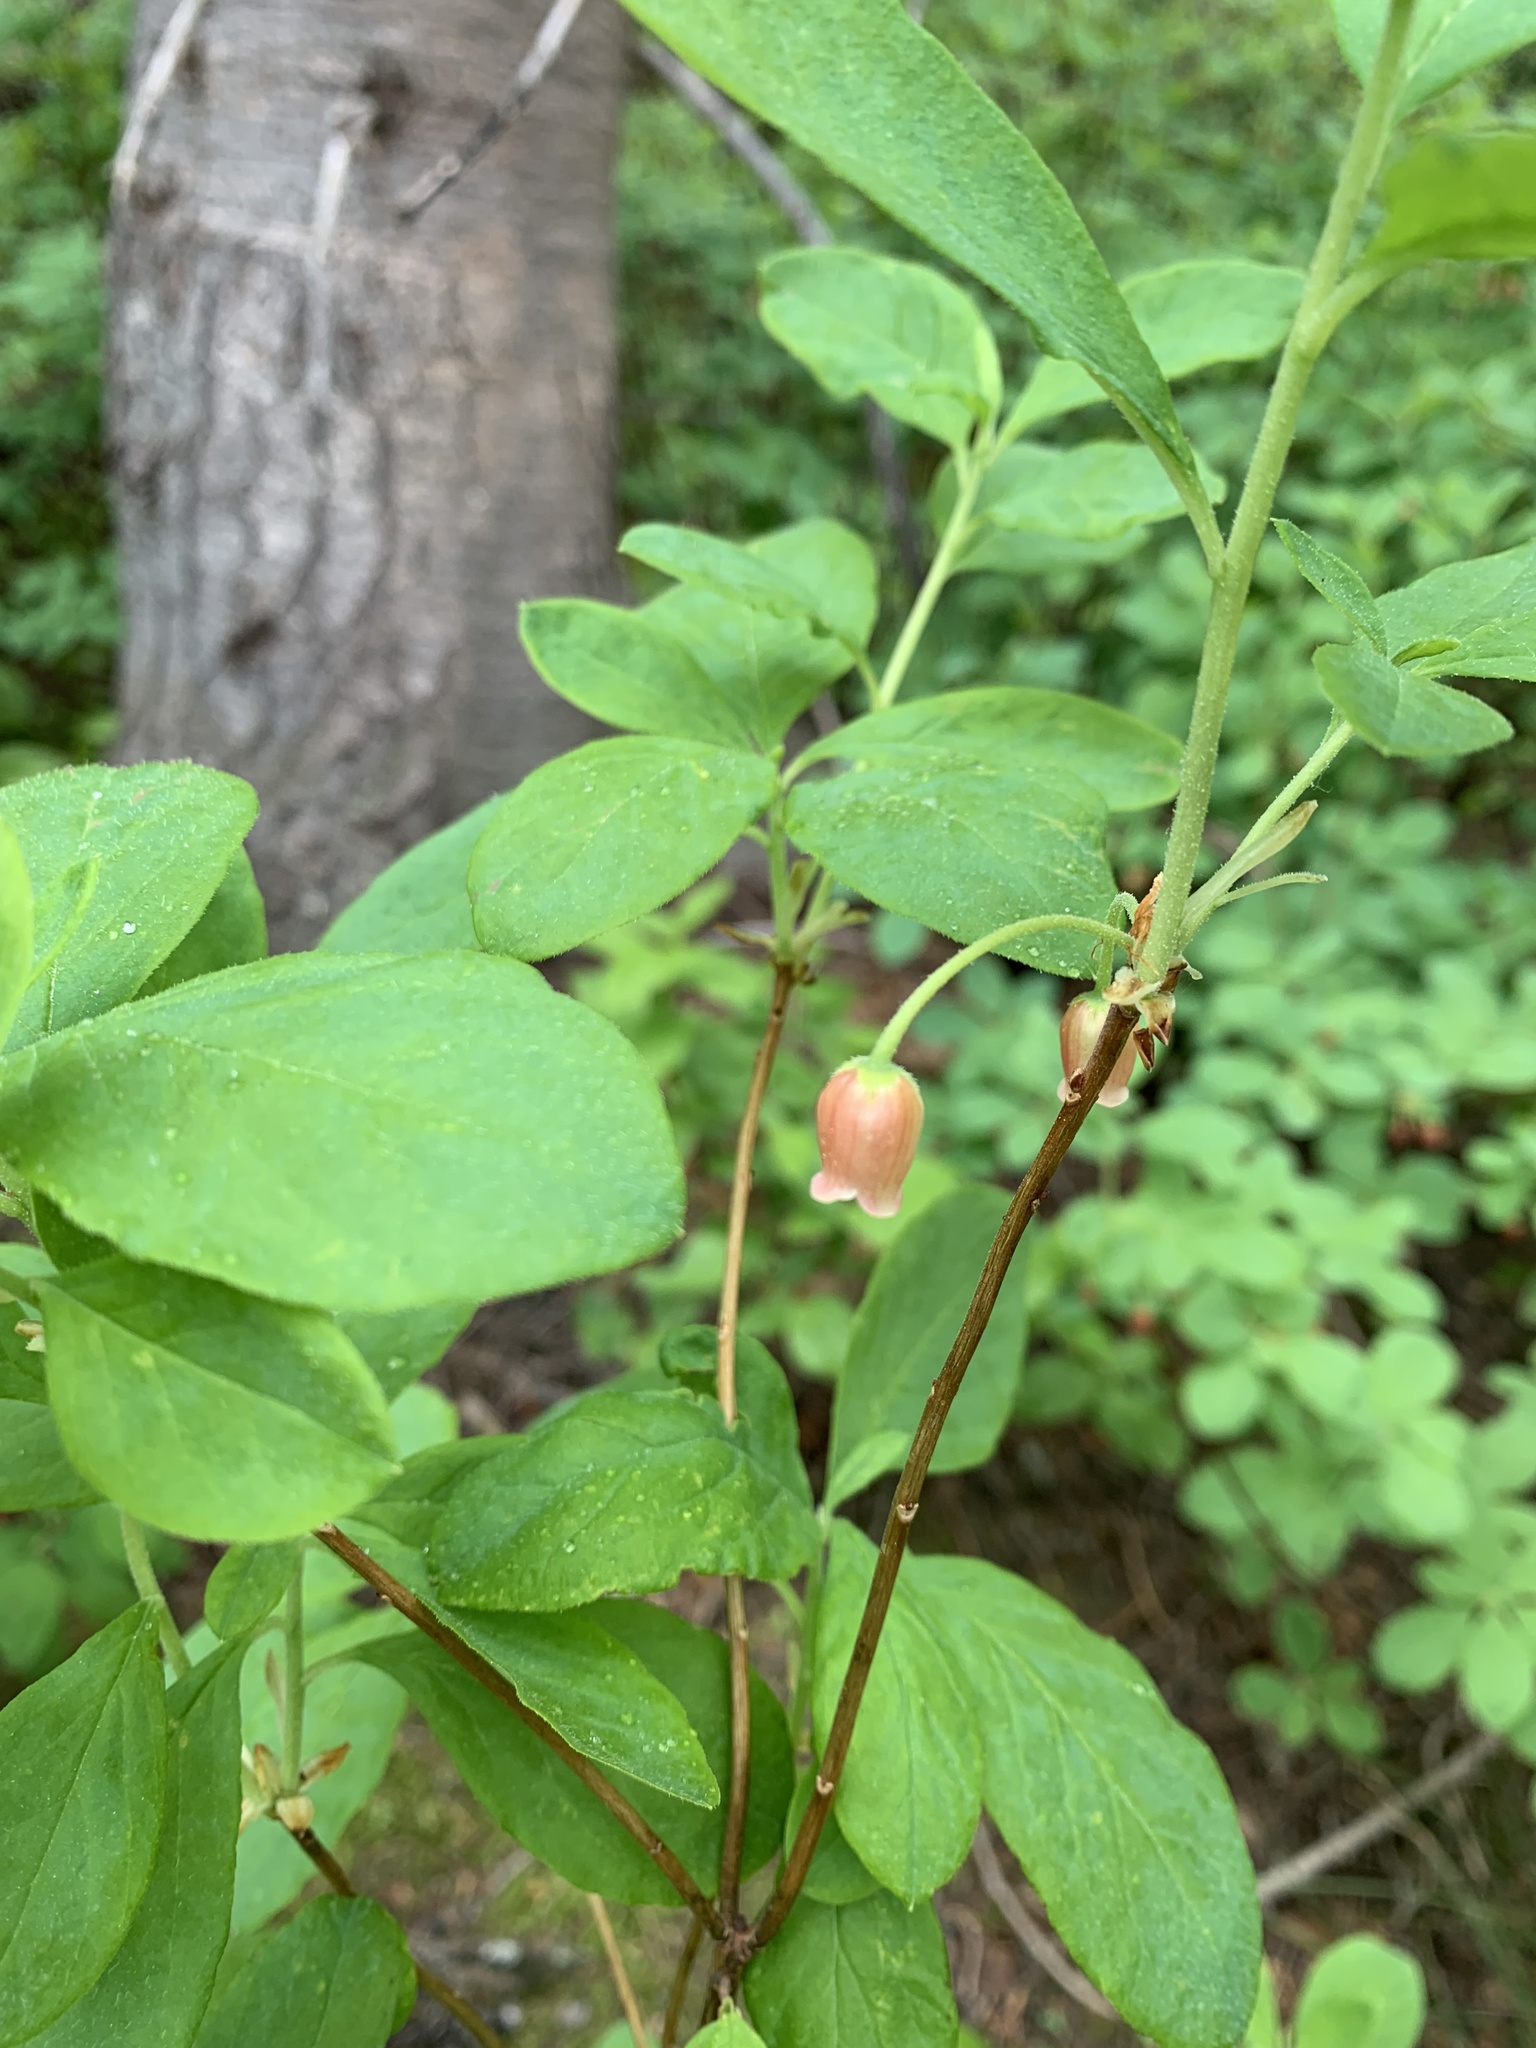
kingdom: Plantae
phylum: Tracheophyta
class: Magnoliopsida
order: Ericales
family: Ericaceae
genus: Rhododendron
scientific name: Rhododendron menziesii
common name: Pacific menziesia
